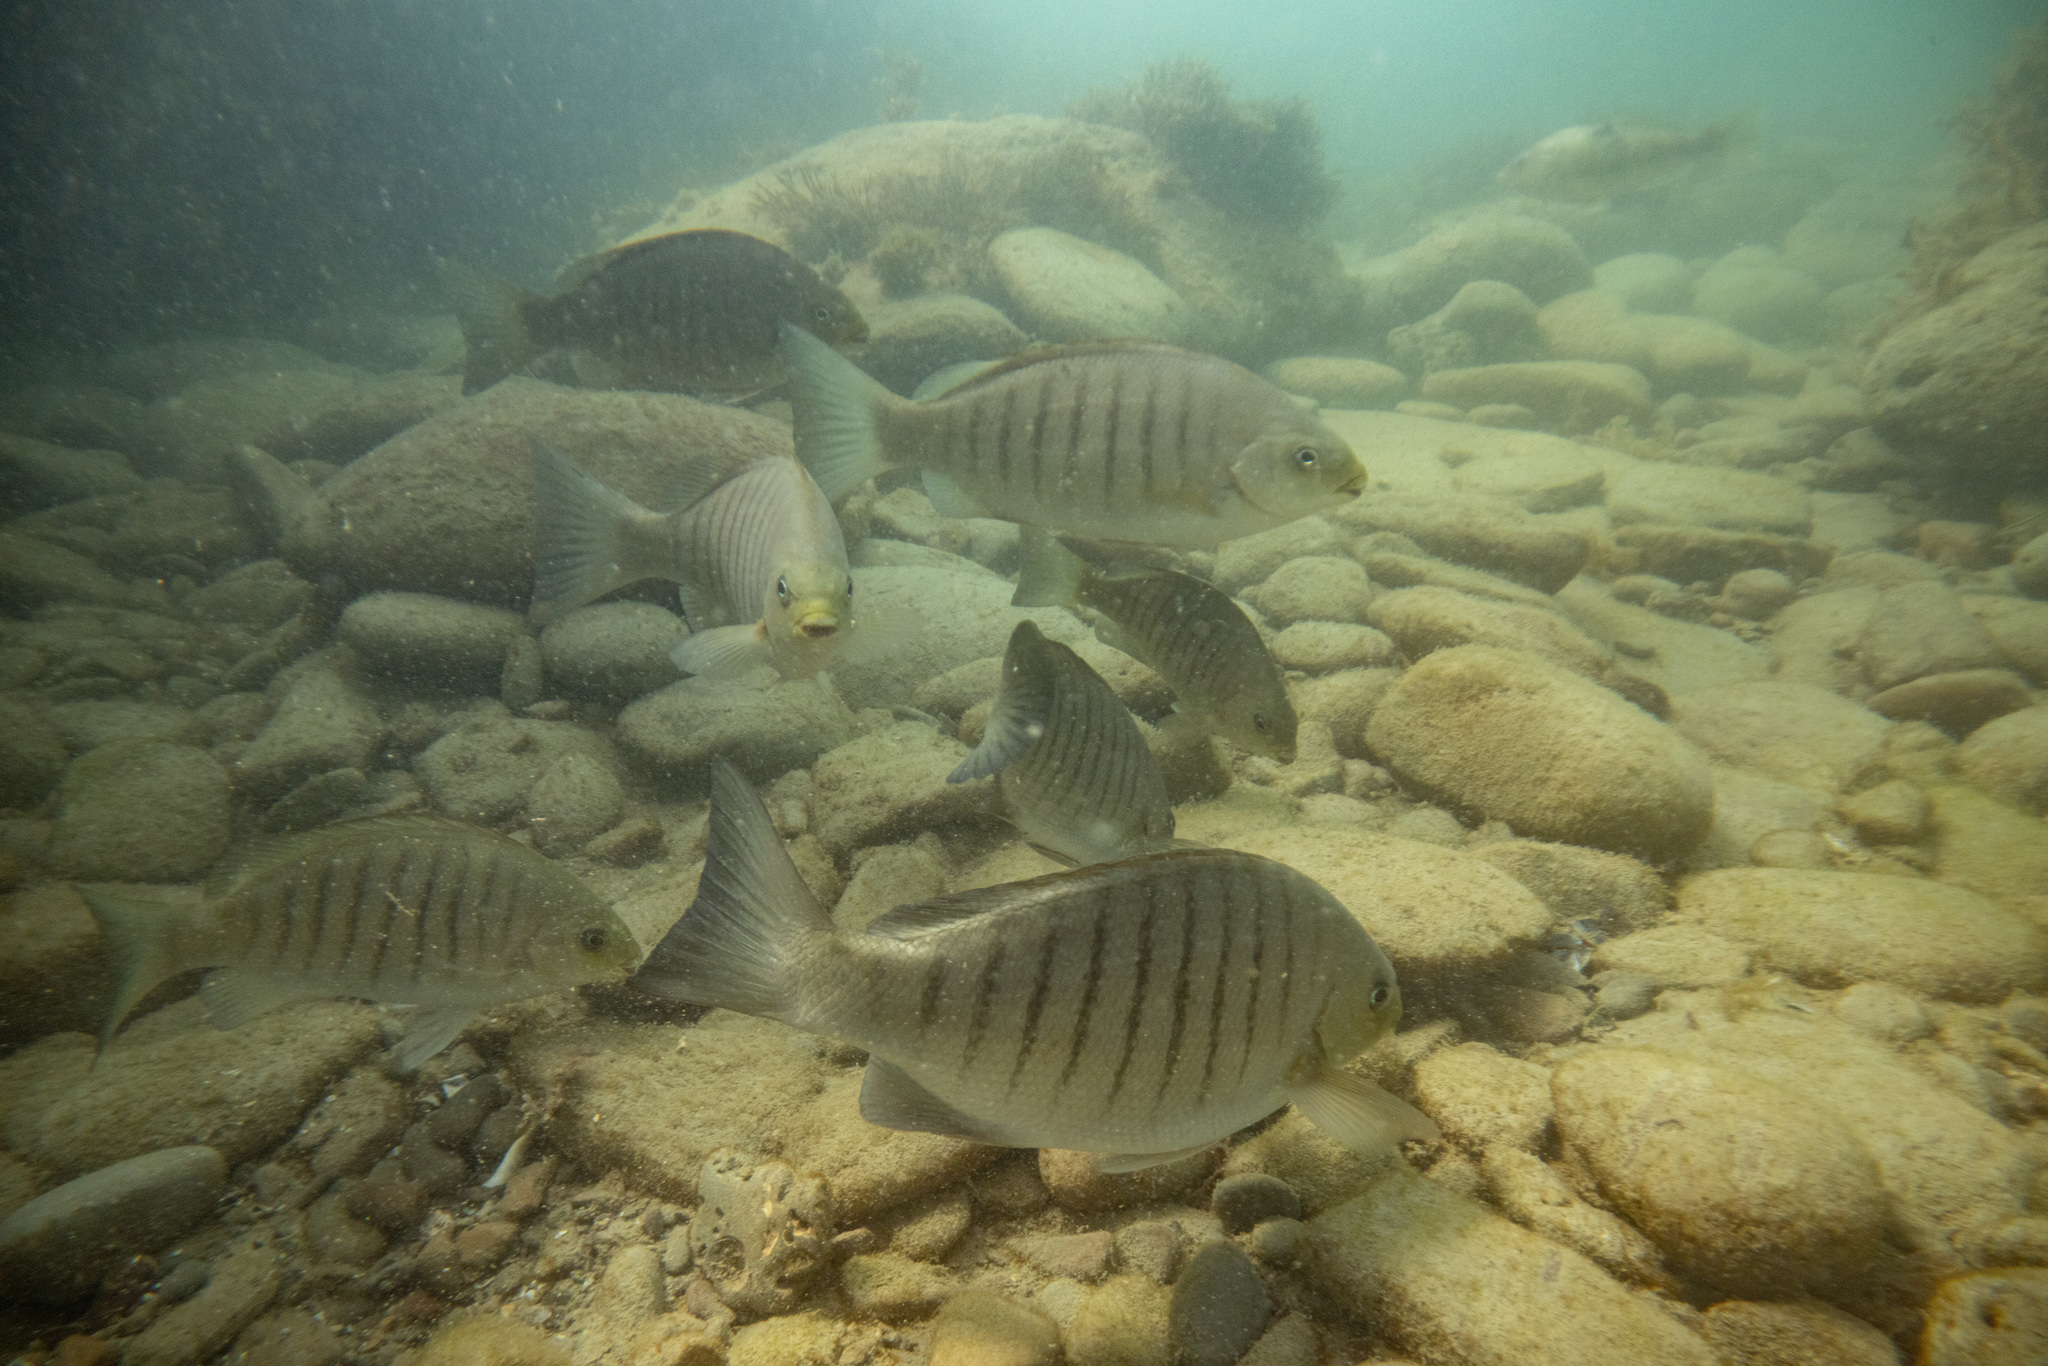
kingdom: Animalia
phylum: Chordata
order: Perciformes
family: Kyphosidae
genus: Girella
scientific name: Girella tricuspidata
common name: Parore
